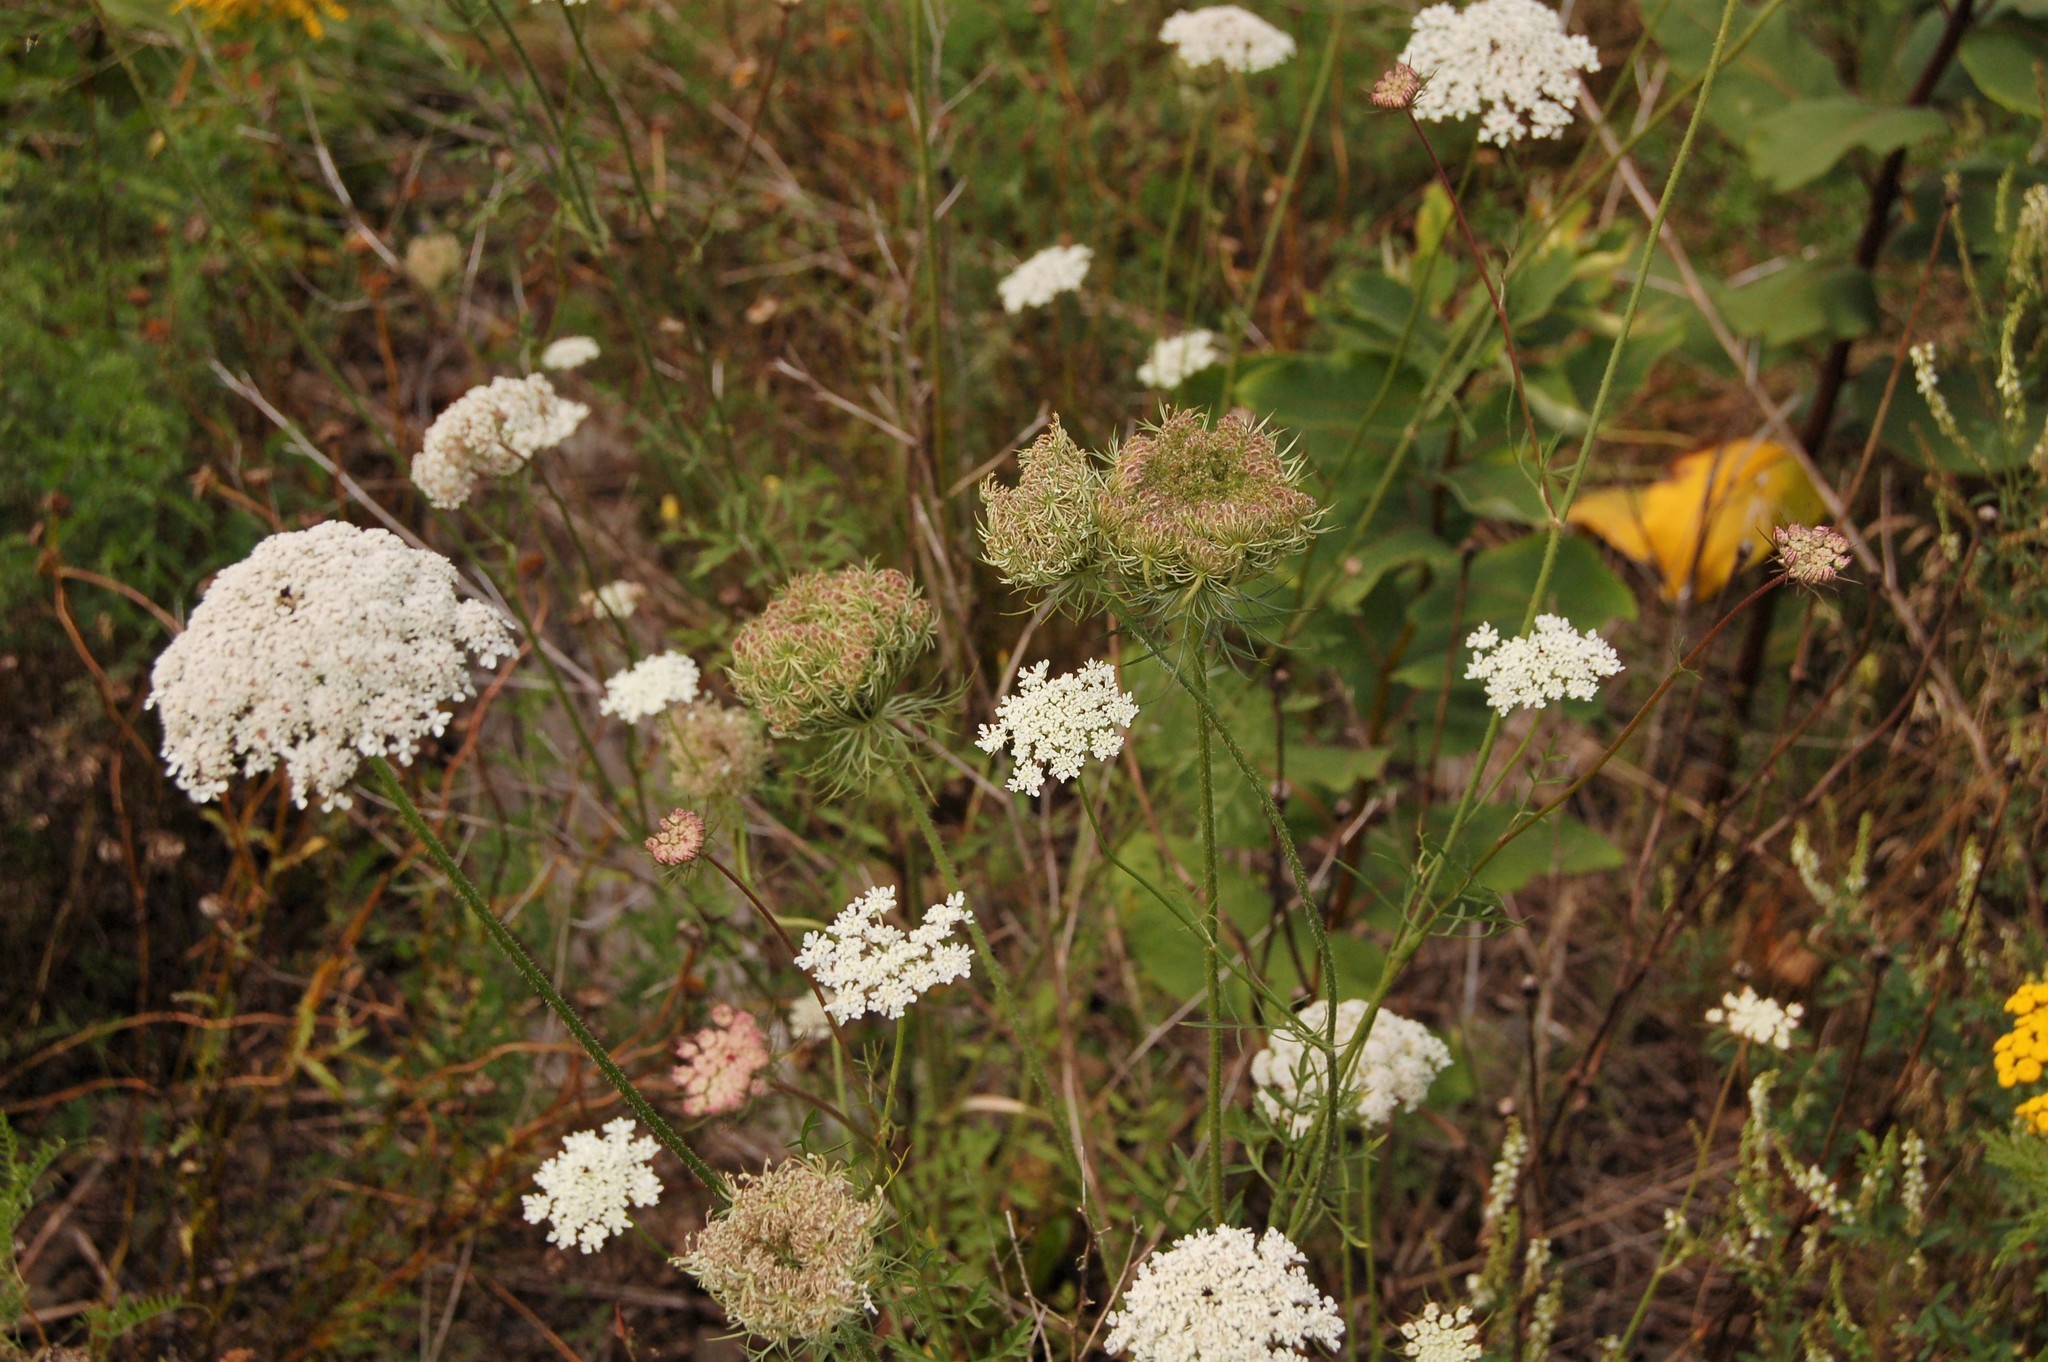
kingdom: Plantae
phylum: Tracheophyta
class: Magnoliopsida
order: Apiales
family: Apiaceae
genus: Daucus
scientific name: Daucus carota
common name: Wild carrot
